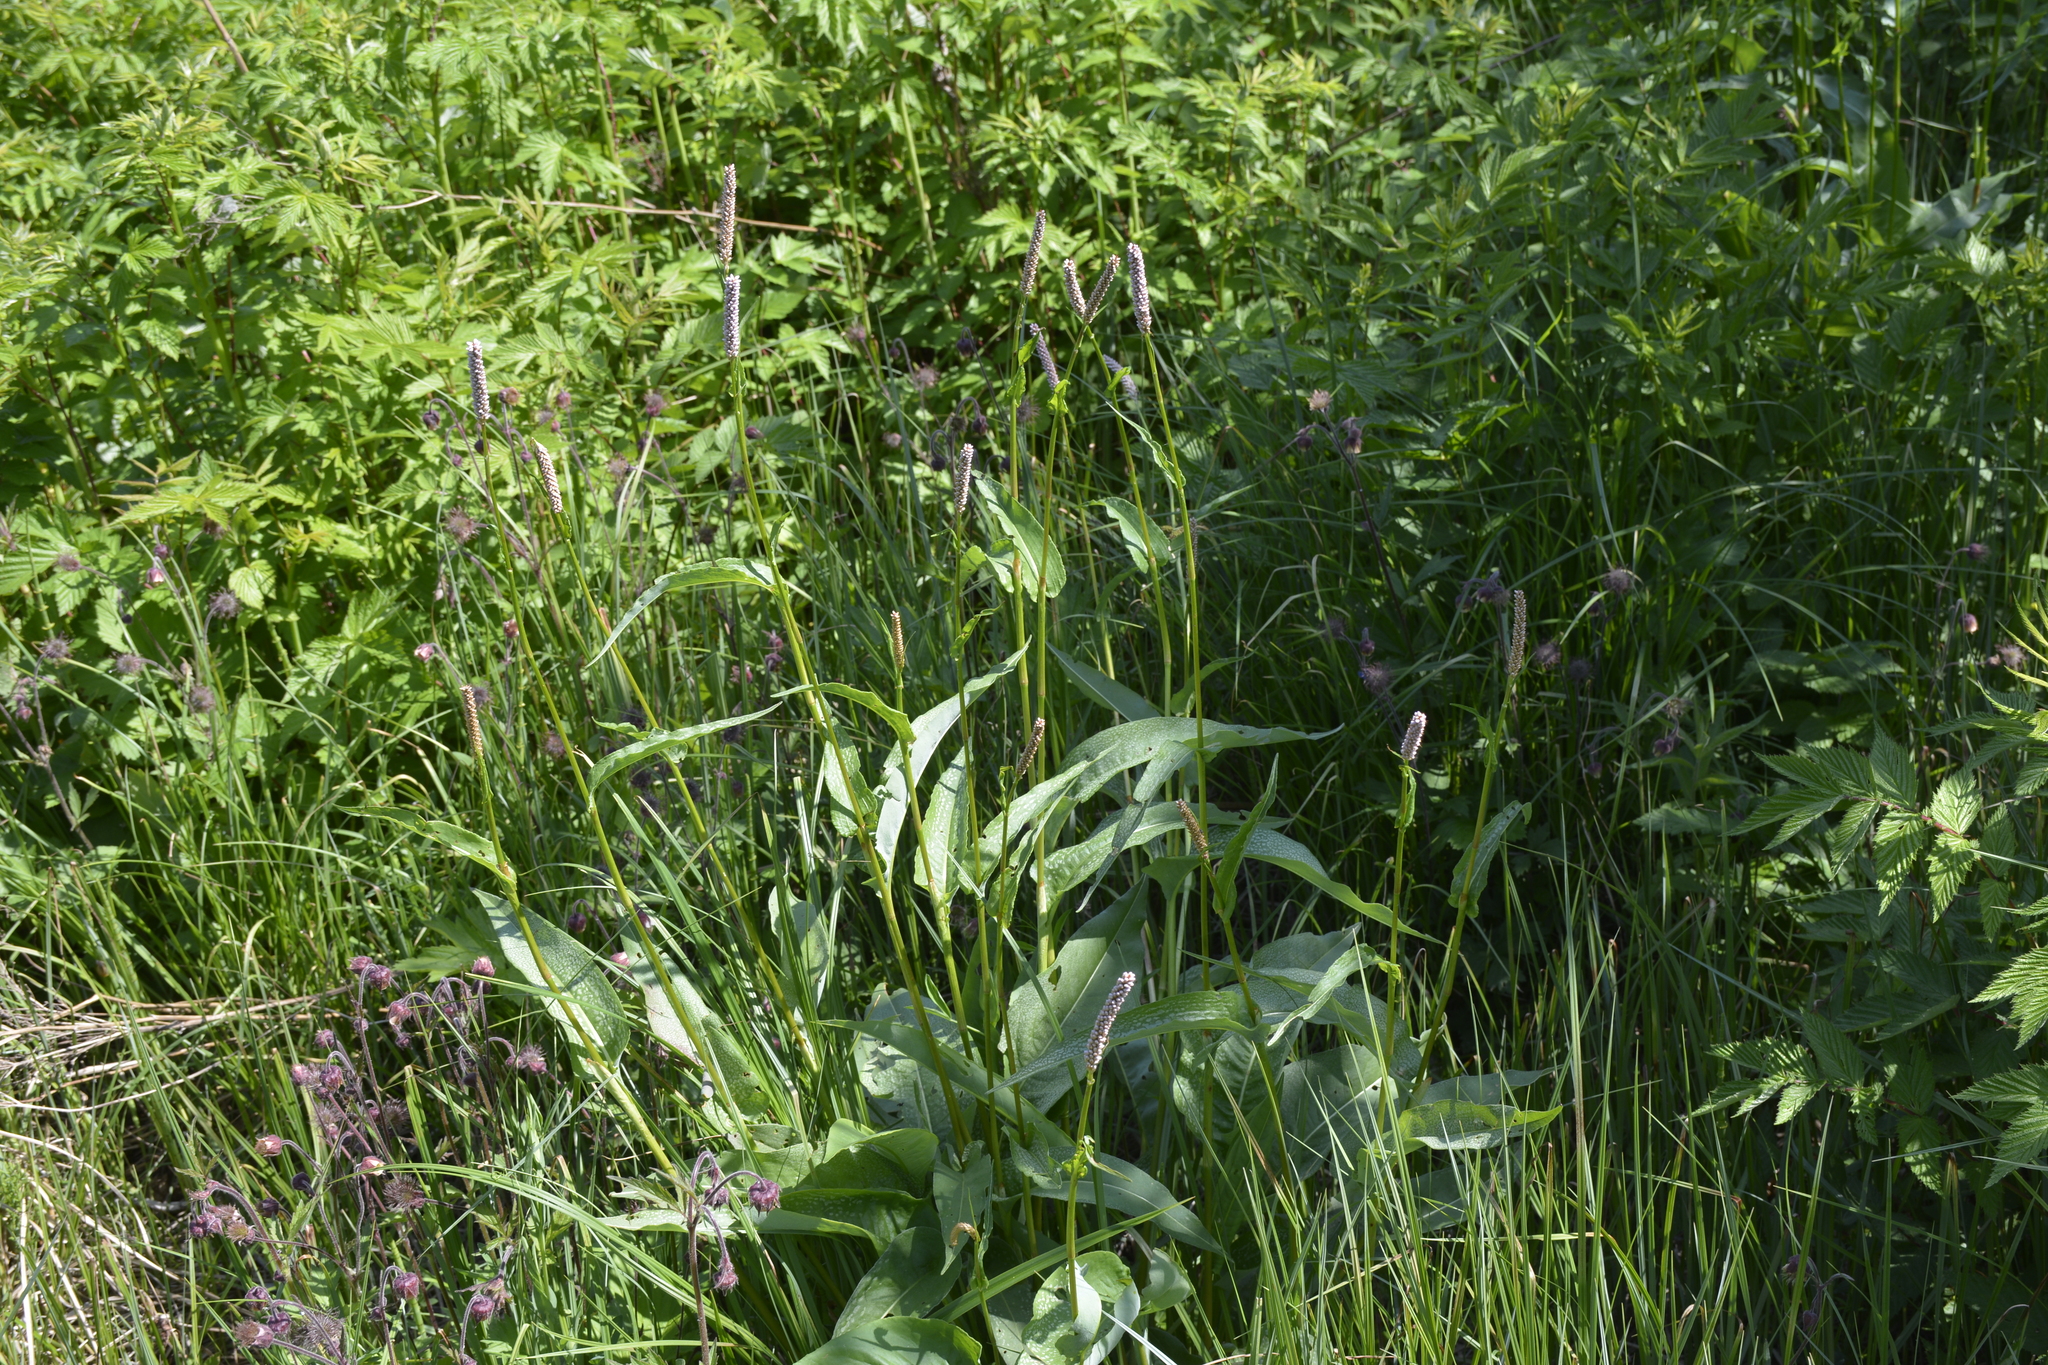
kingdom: Plantae
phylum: Tracheophyta
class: Magnoliopsida
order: Caryophyllales
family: Polygonaceae
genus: Bistorta
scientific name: Bistorta officinalis
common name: Common bistort
